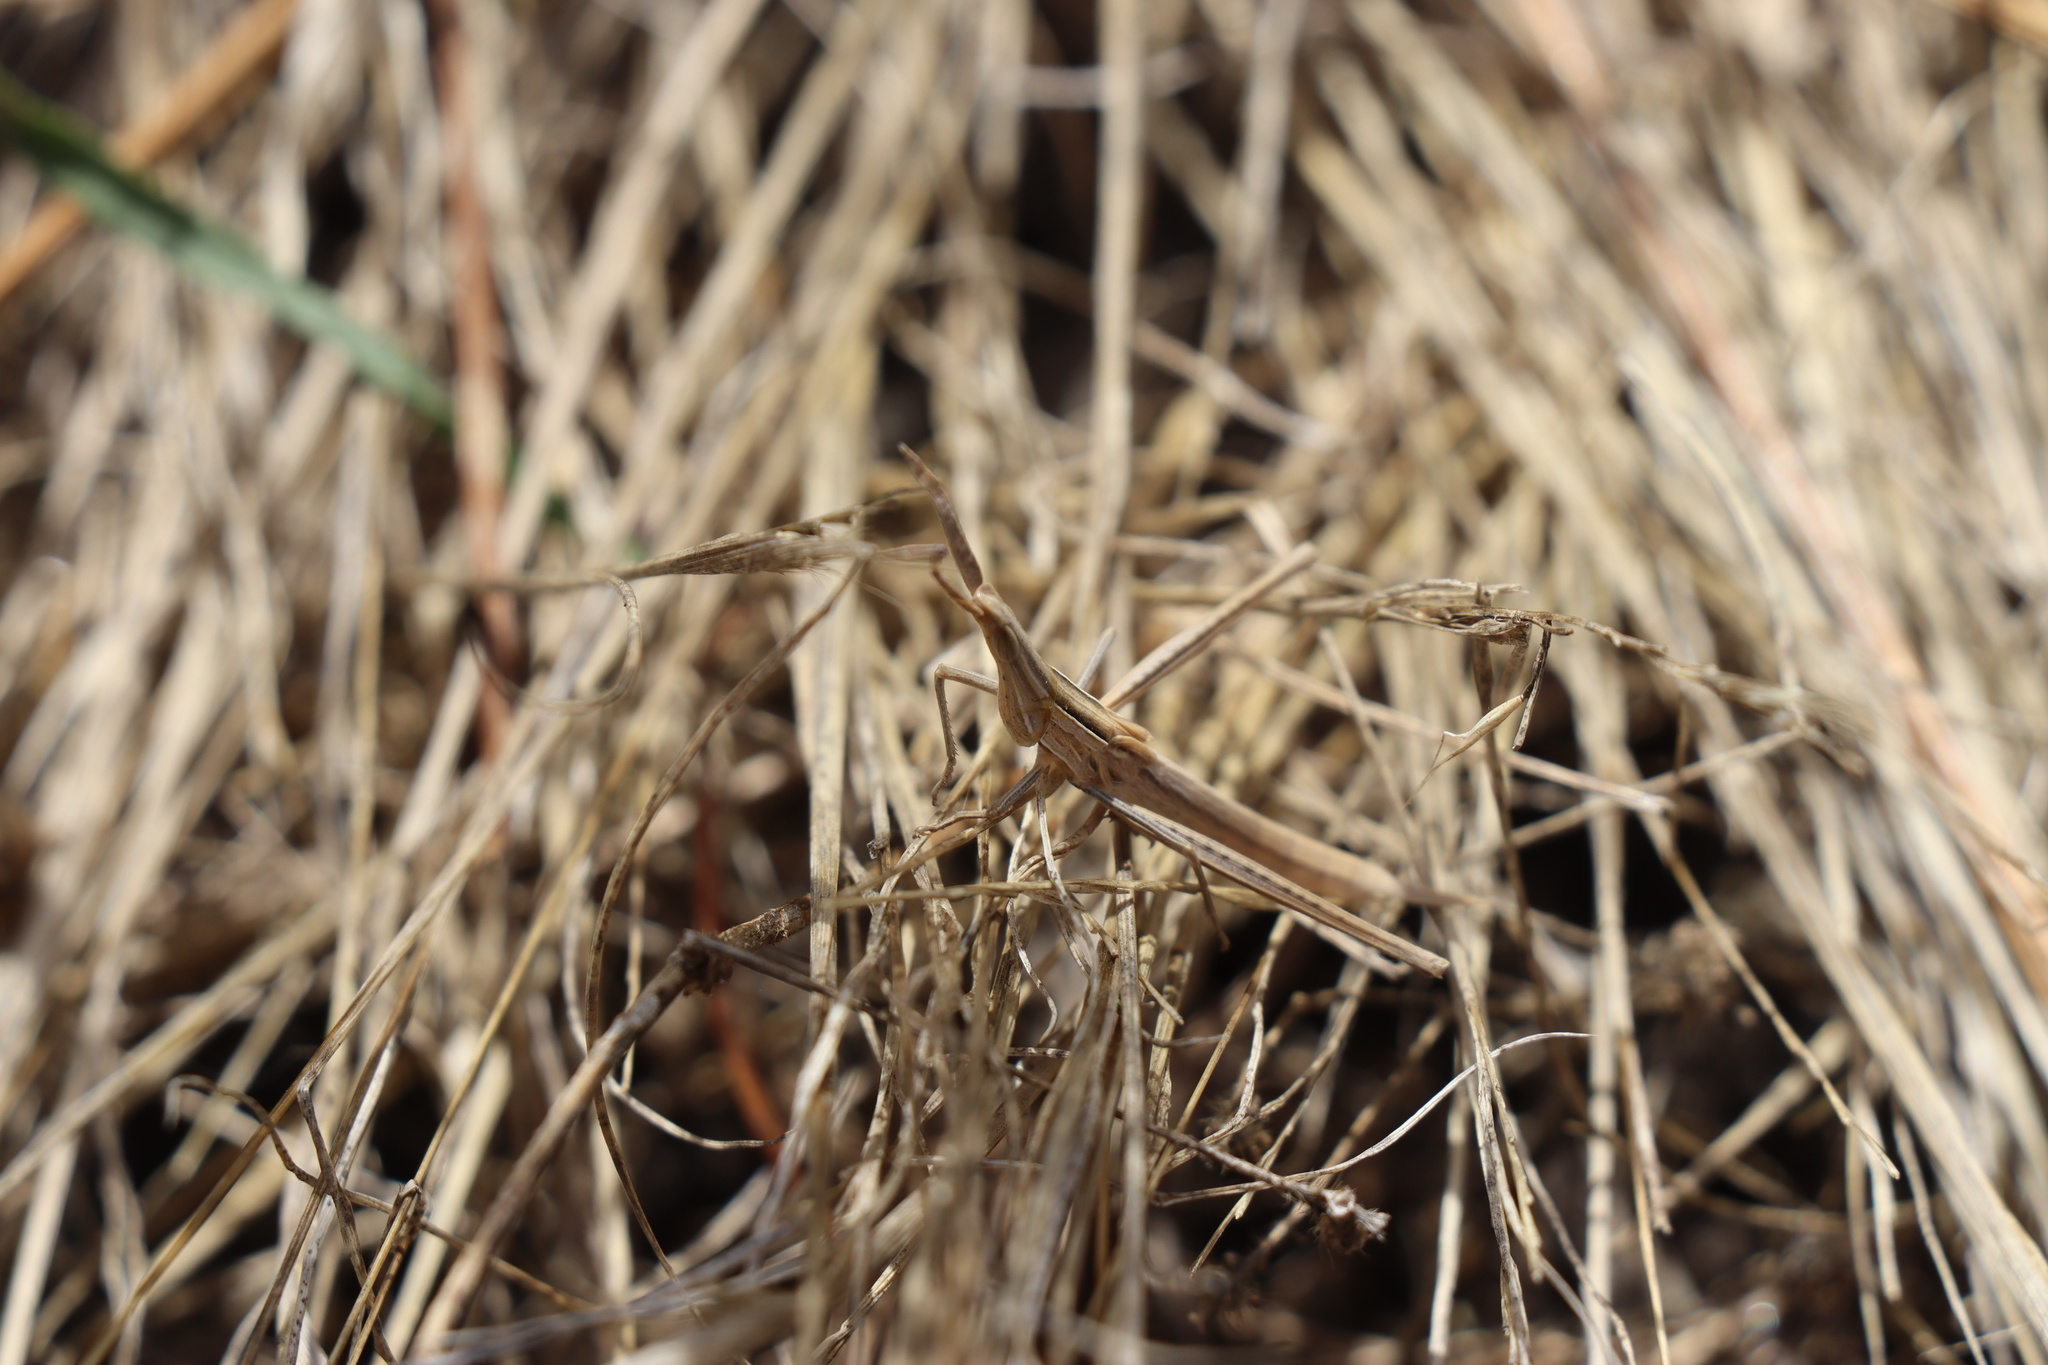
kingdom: Animalia
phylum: Arthropoda
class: Insecta
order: Orthoptera
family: Acrididae
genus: Acrida
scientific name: Acrida conica
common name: Giant green slantface
